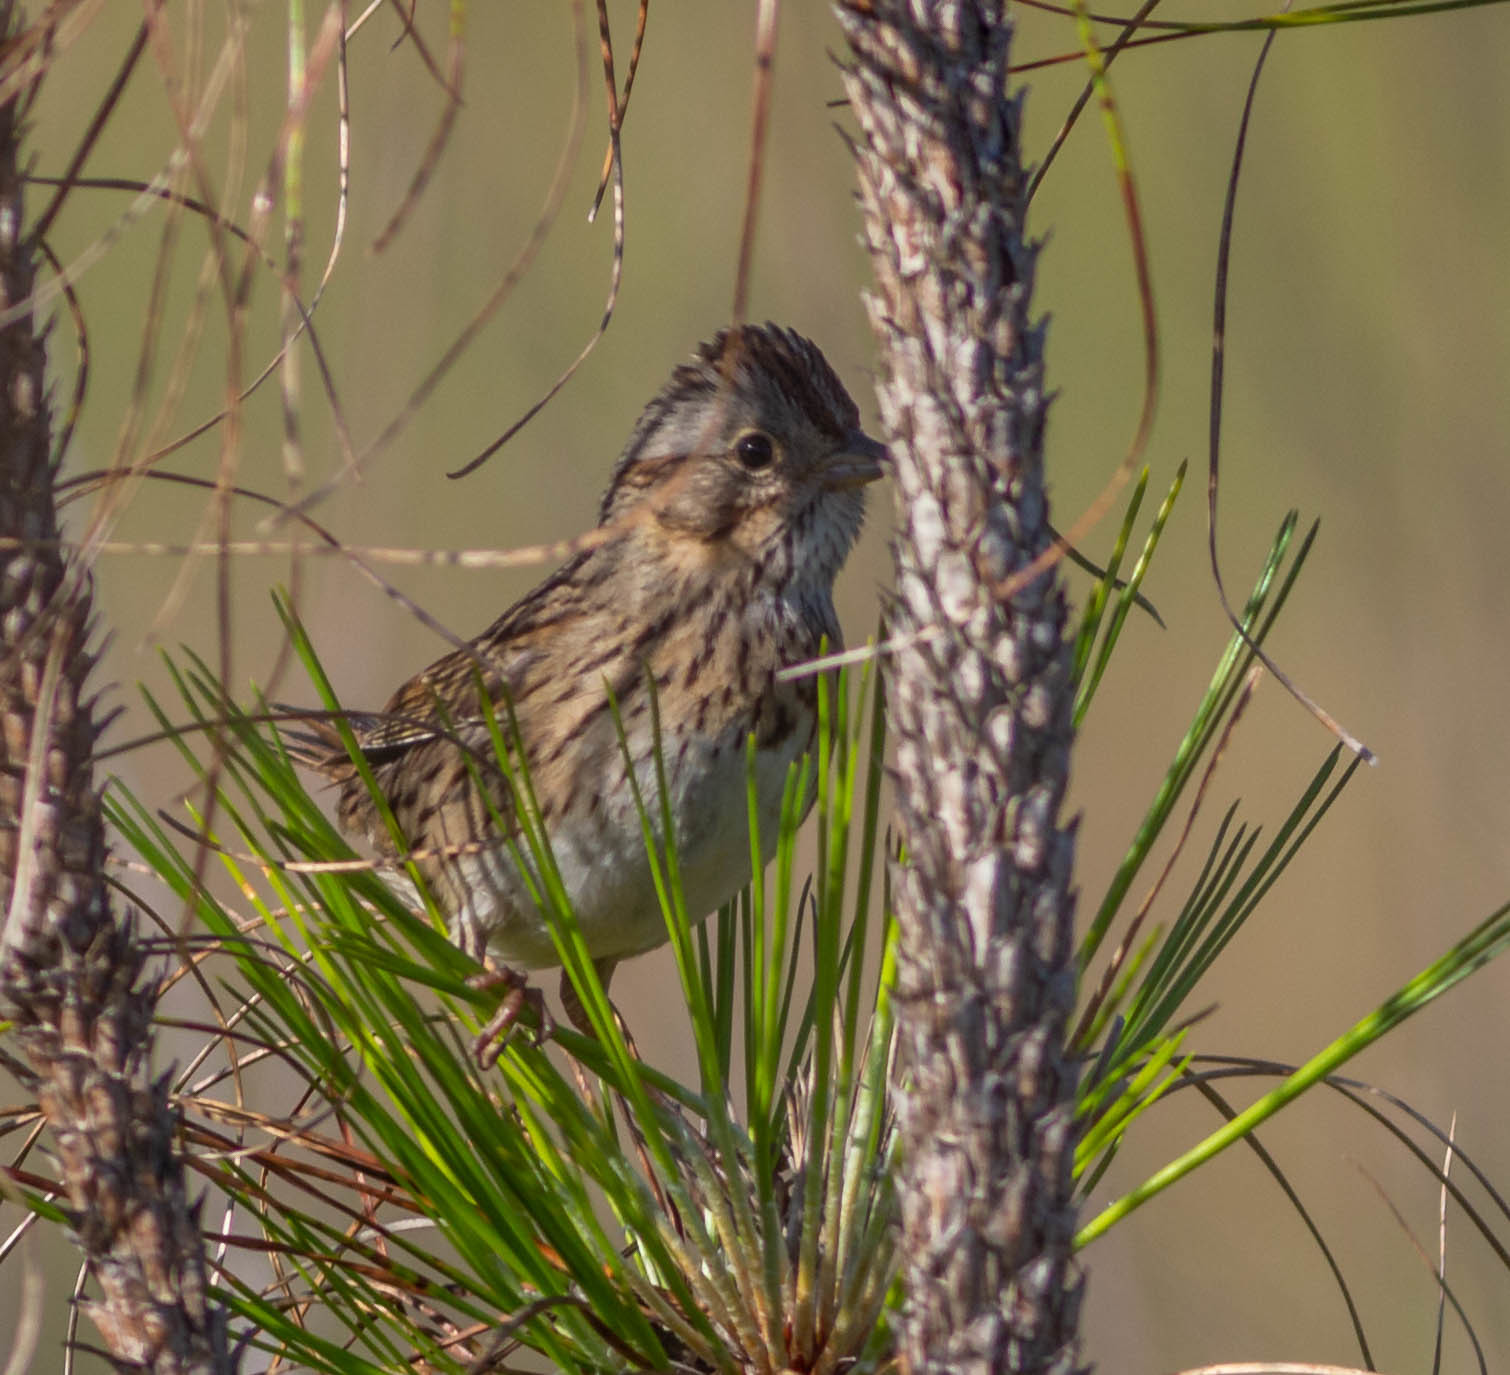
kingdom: Animalia
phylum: Chordata
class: Aves
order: Passeriformes
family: Passerellidae
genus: Melospiza
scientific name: Melospiza lincolnii
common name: Lincoln's sparrow
